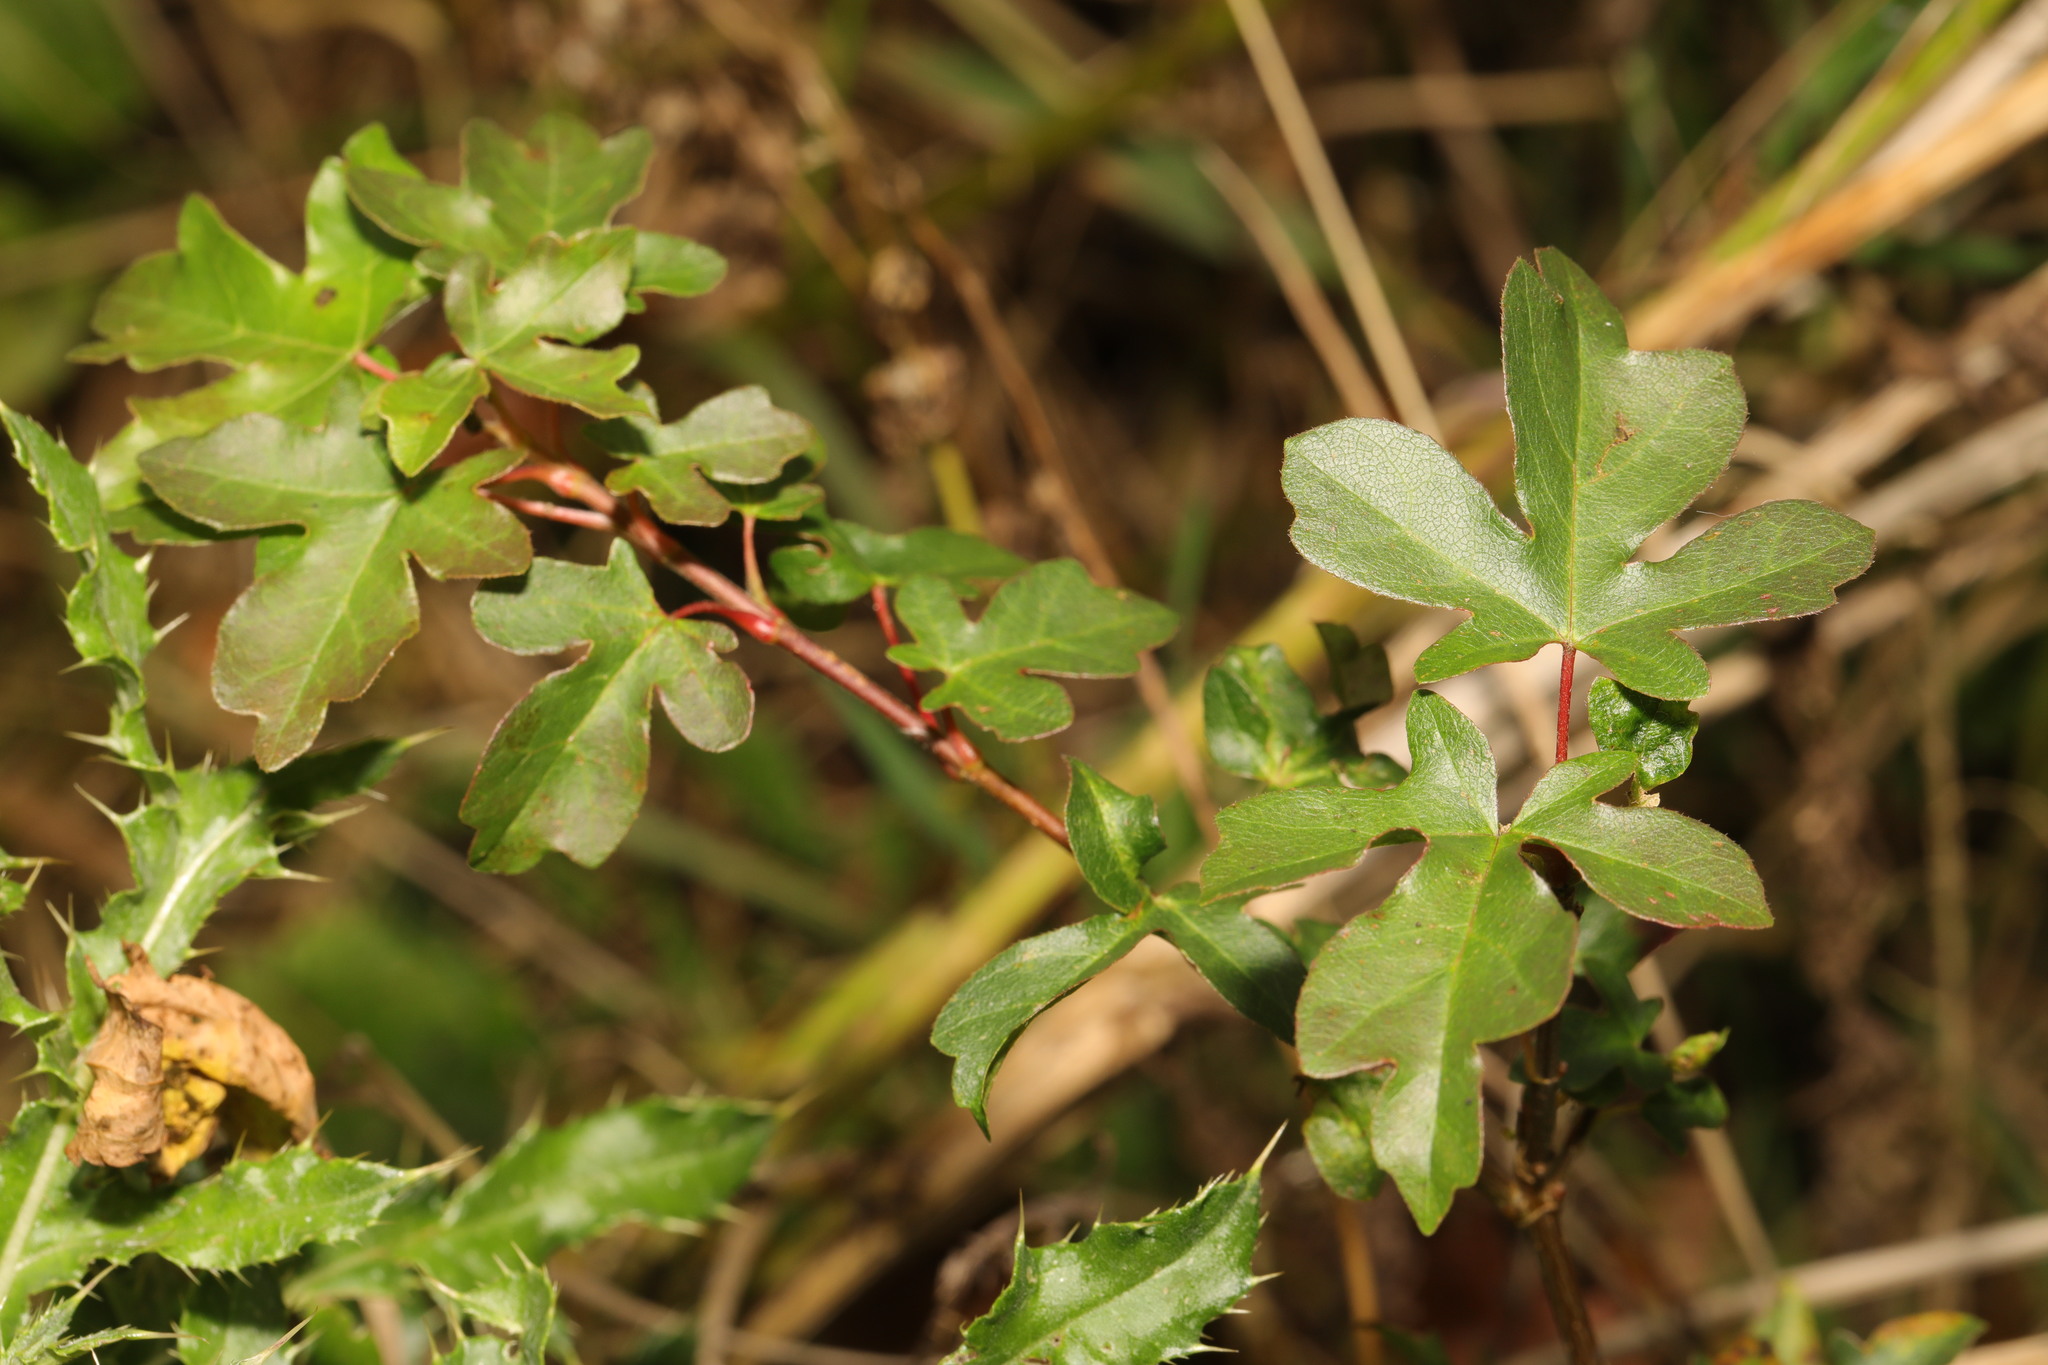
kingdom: Plantae
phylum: Tracheophyta
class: Magnoliopsida
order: Sapindales
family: Sapindaceae
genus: Acer
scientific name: Acer campestre
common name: Field maple
